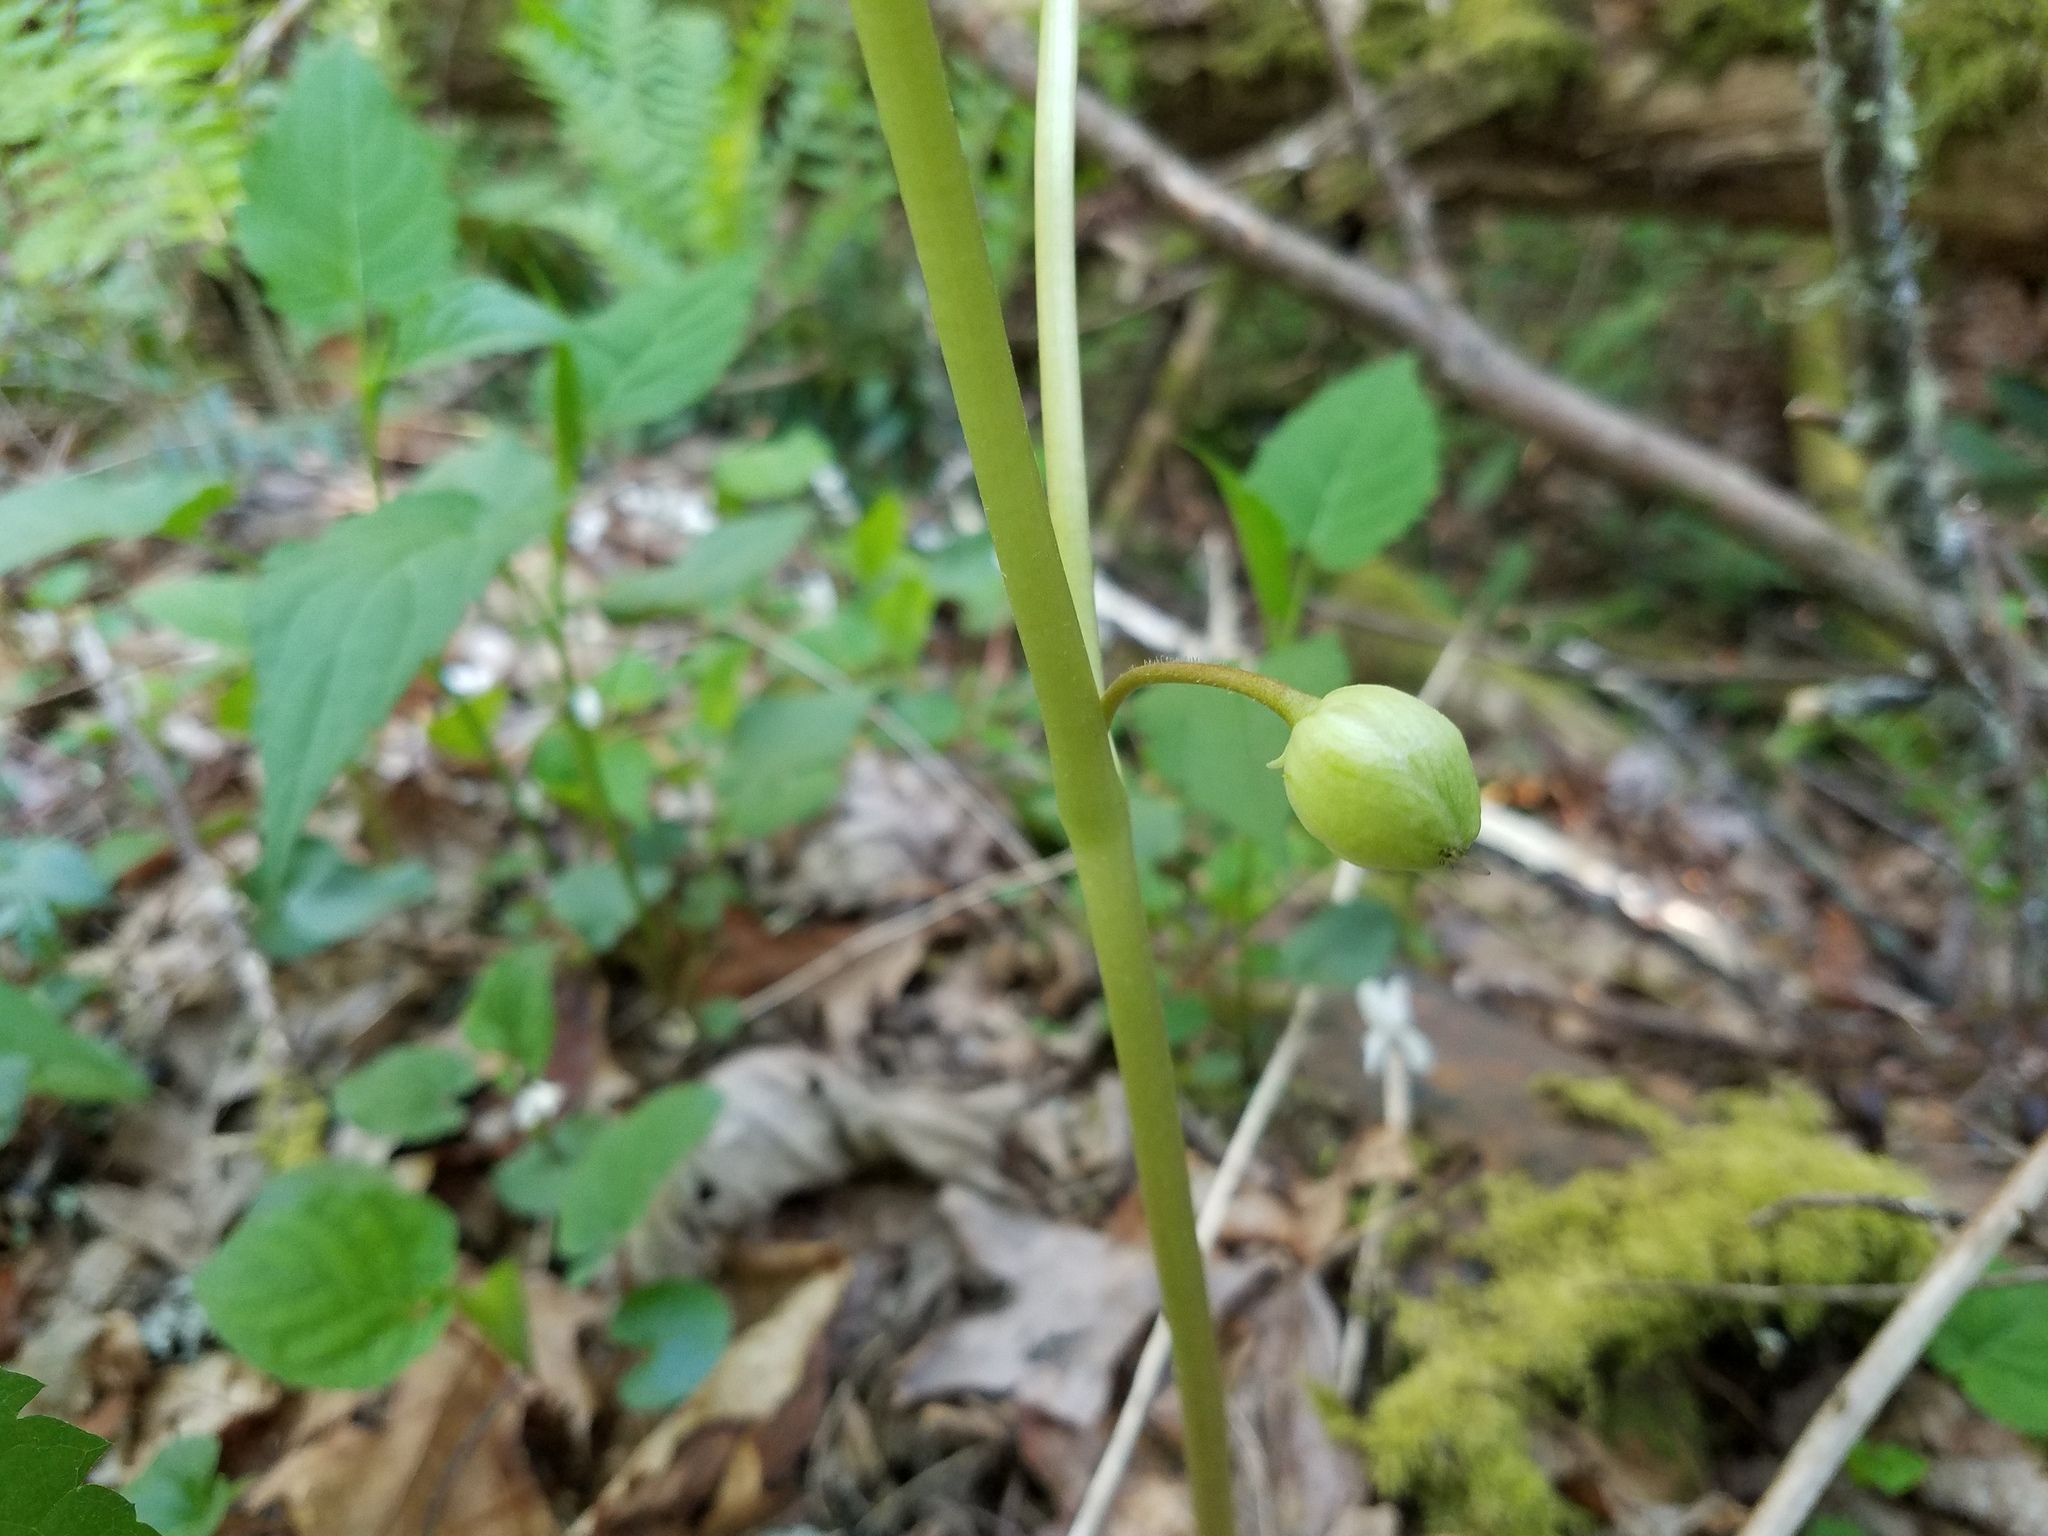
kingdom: Plantae
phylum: Tracheophyta
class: Magnoliopsida
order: Ranunculales
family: Berberidaceae
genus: Podophyllum
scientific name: Podophyllum peltatum
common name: Wild mandrake
